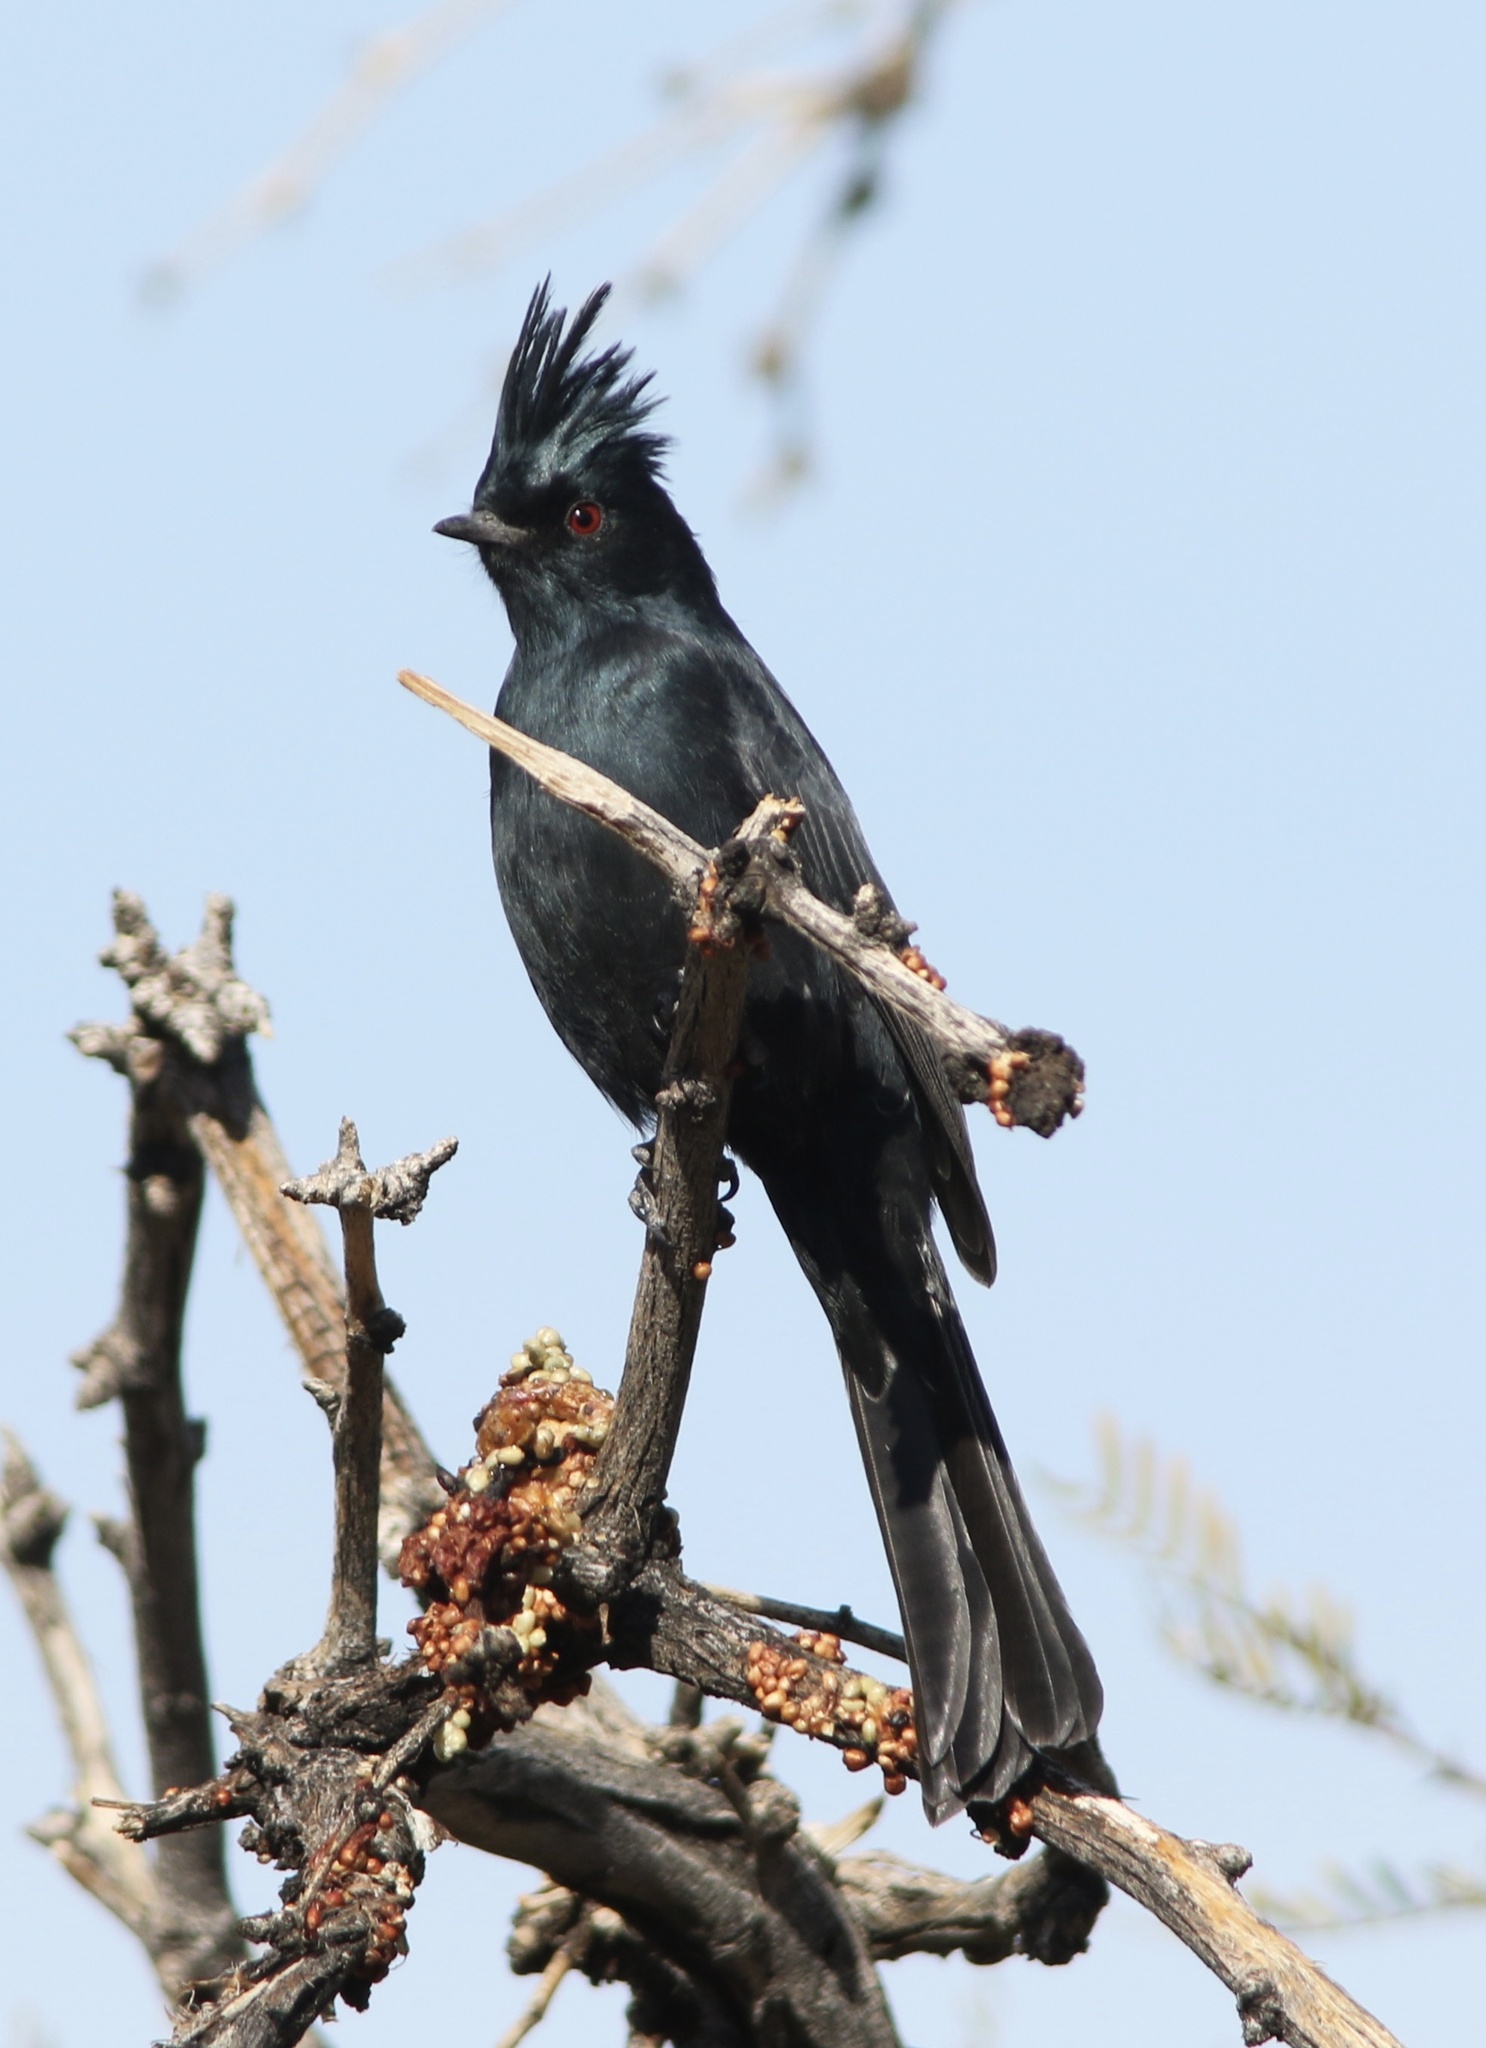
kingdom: Animalia
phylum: Chordata
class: Aves
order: Passeriformes
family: Ptilogonatidae
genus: Phainopepla
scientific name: Phainopepla nitens
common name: Phainopepla
